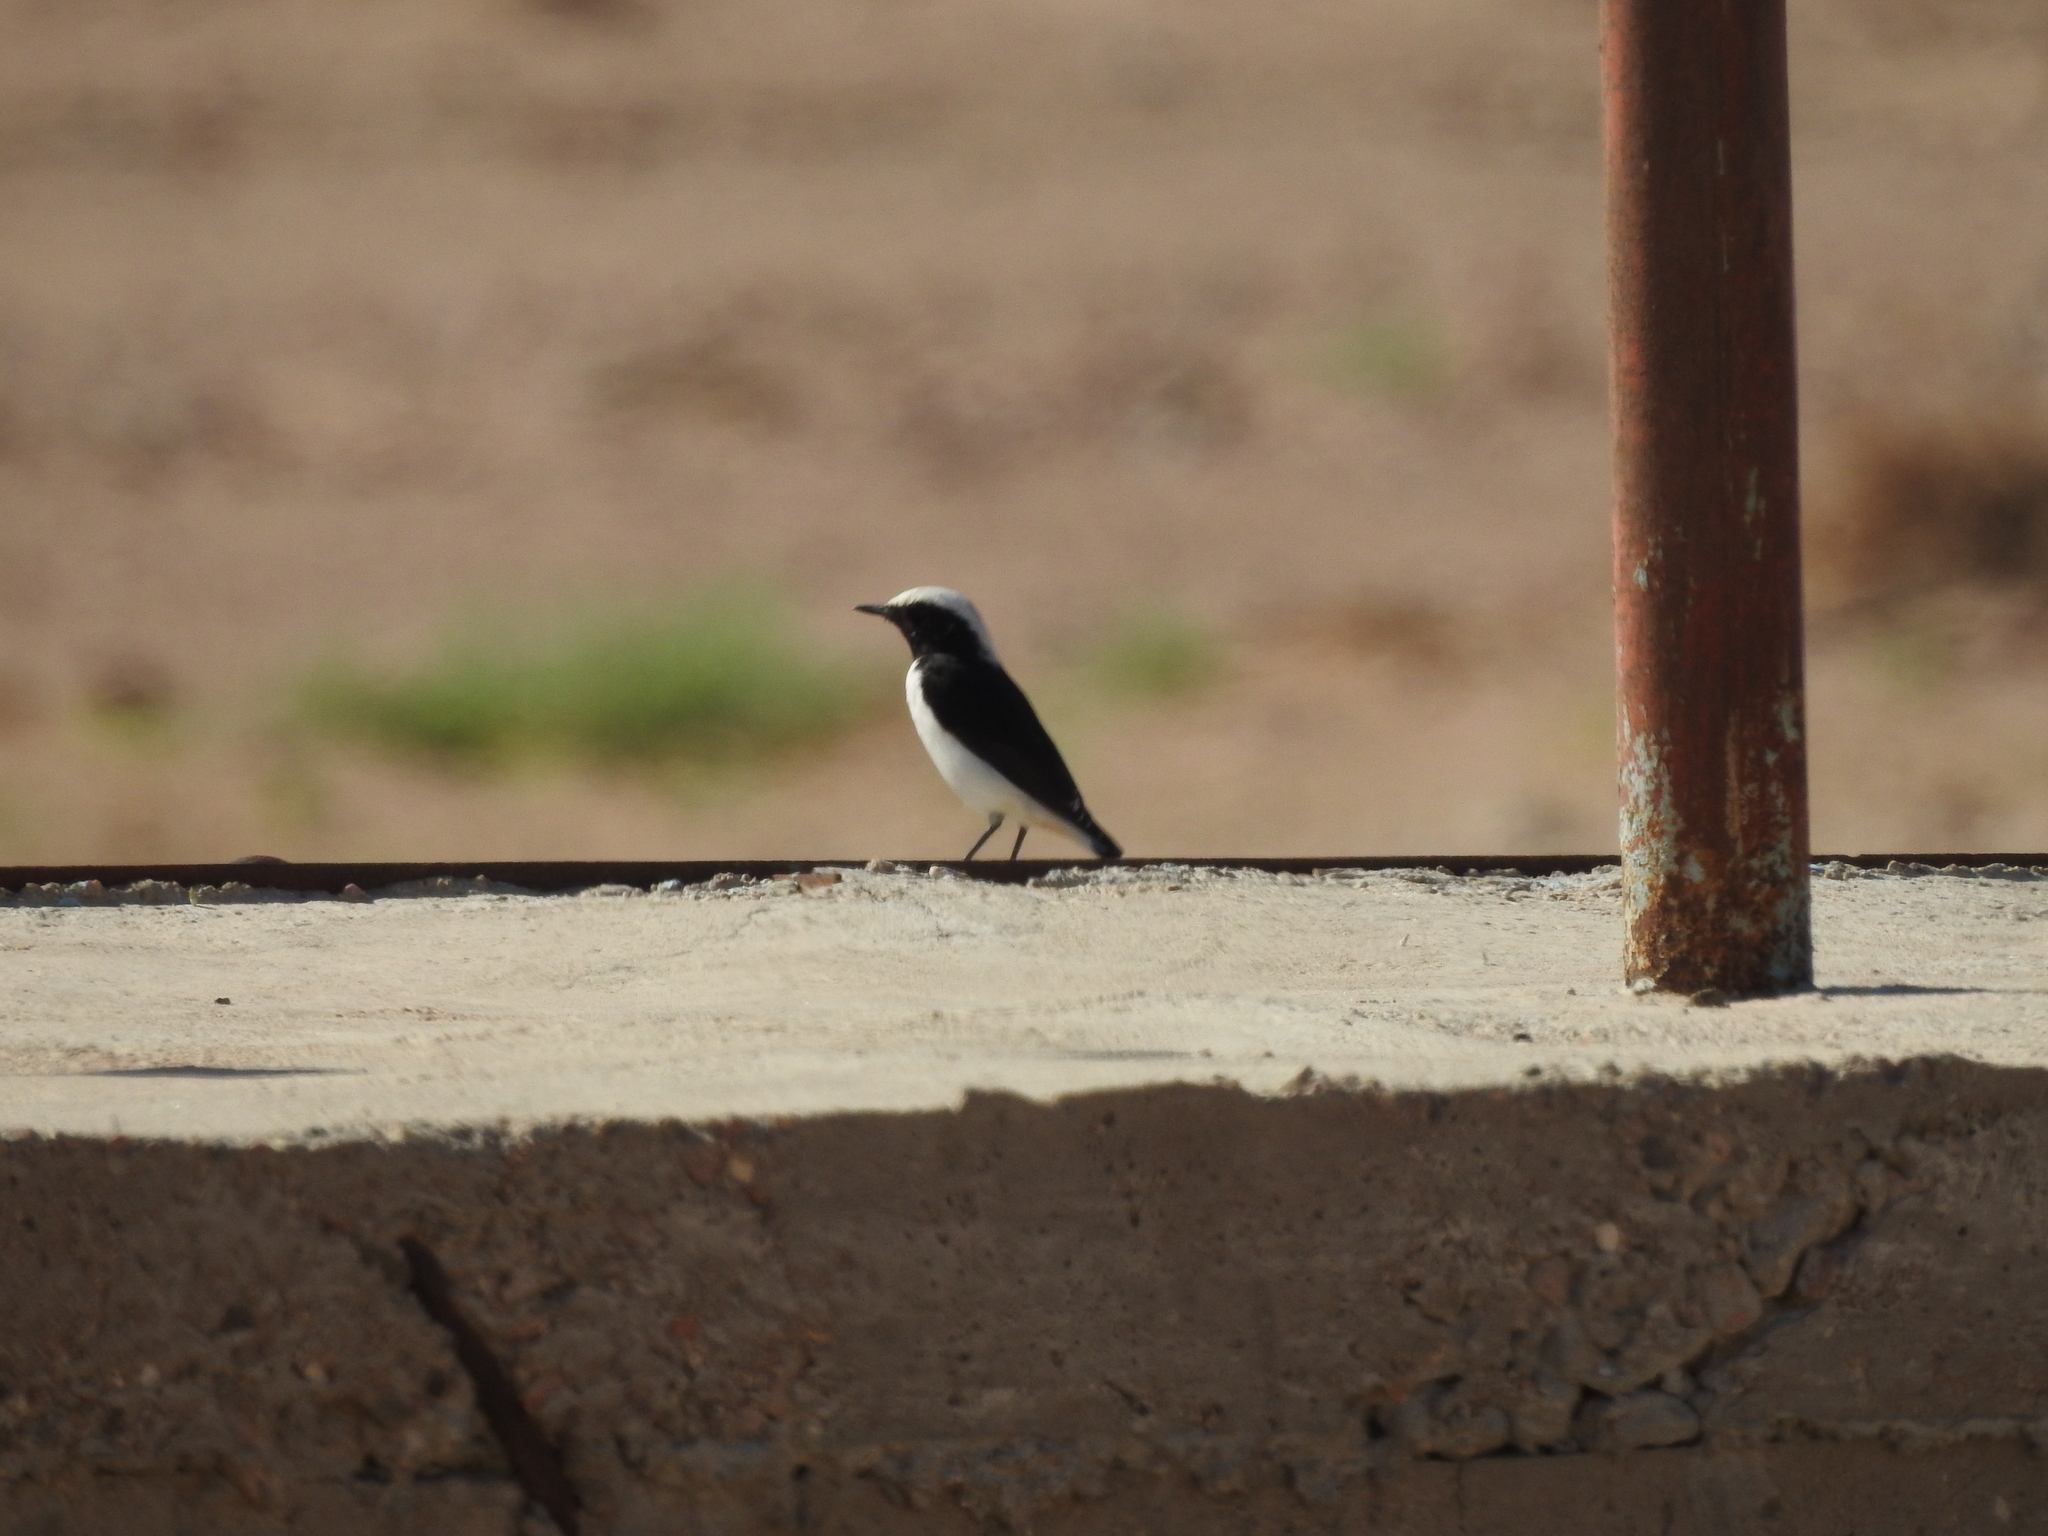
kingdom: Animalia
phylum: Chordata
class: Aves
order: Passeriformes
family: Muscicapidae
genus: Oenanthe
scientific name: Oenanthe lugens
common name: Mourning wheatear
